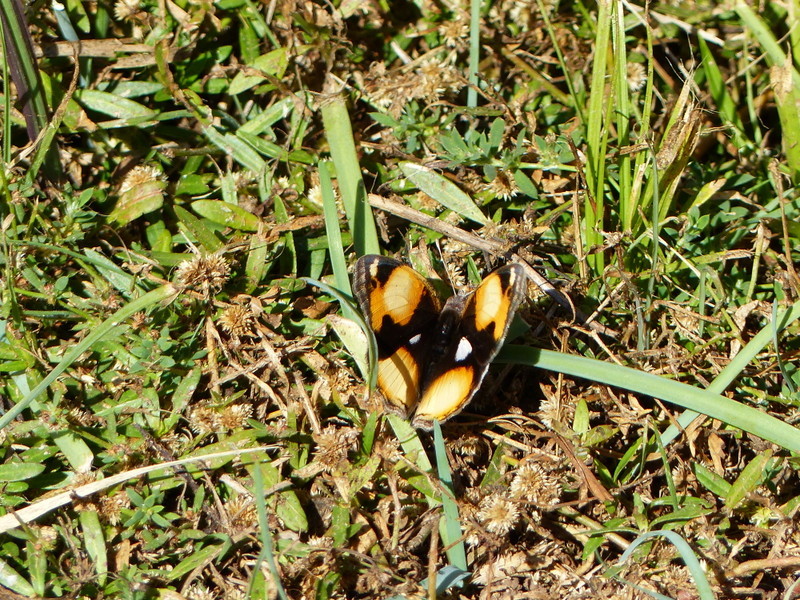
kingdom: Animalia
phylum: Arthropoda
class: Insecta
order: Lepidoptera
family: Nymphalidae
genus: Junonia
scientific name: Junonia hierta
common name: Yellow pansy
